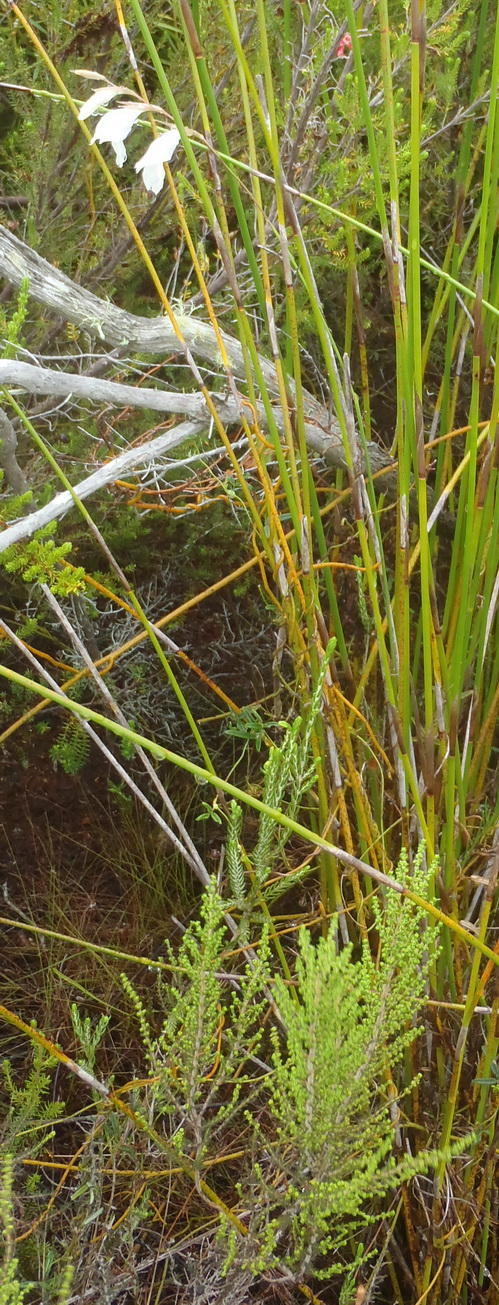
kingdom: Plantae
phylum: Tracheophyta
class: Liliopsida
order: Asparagales
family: Iridaceae
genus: Gladiolus
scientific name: Gladiolus vaginatus
